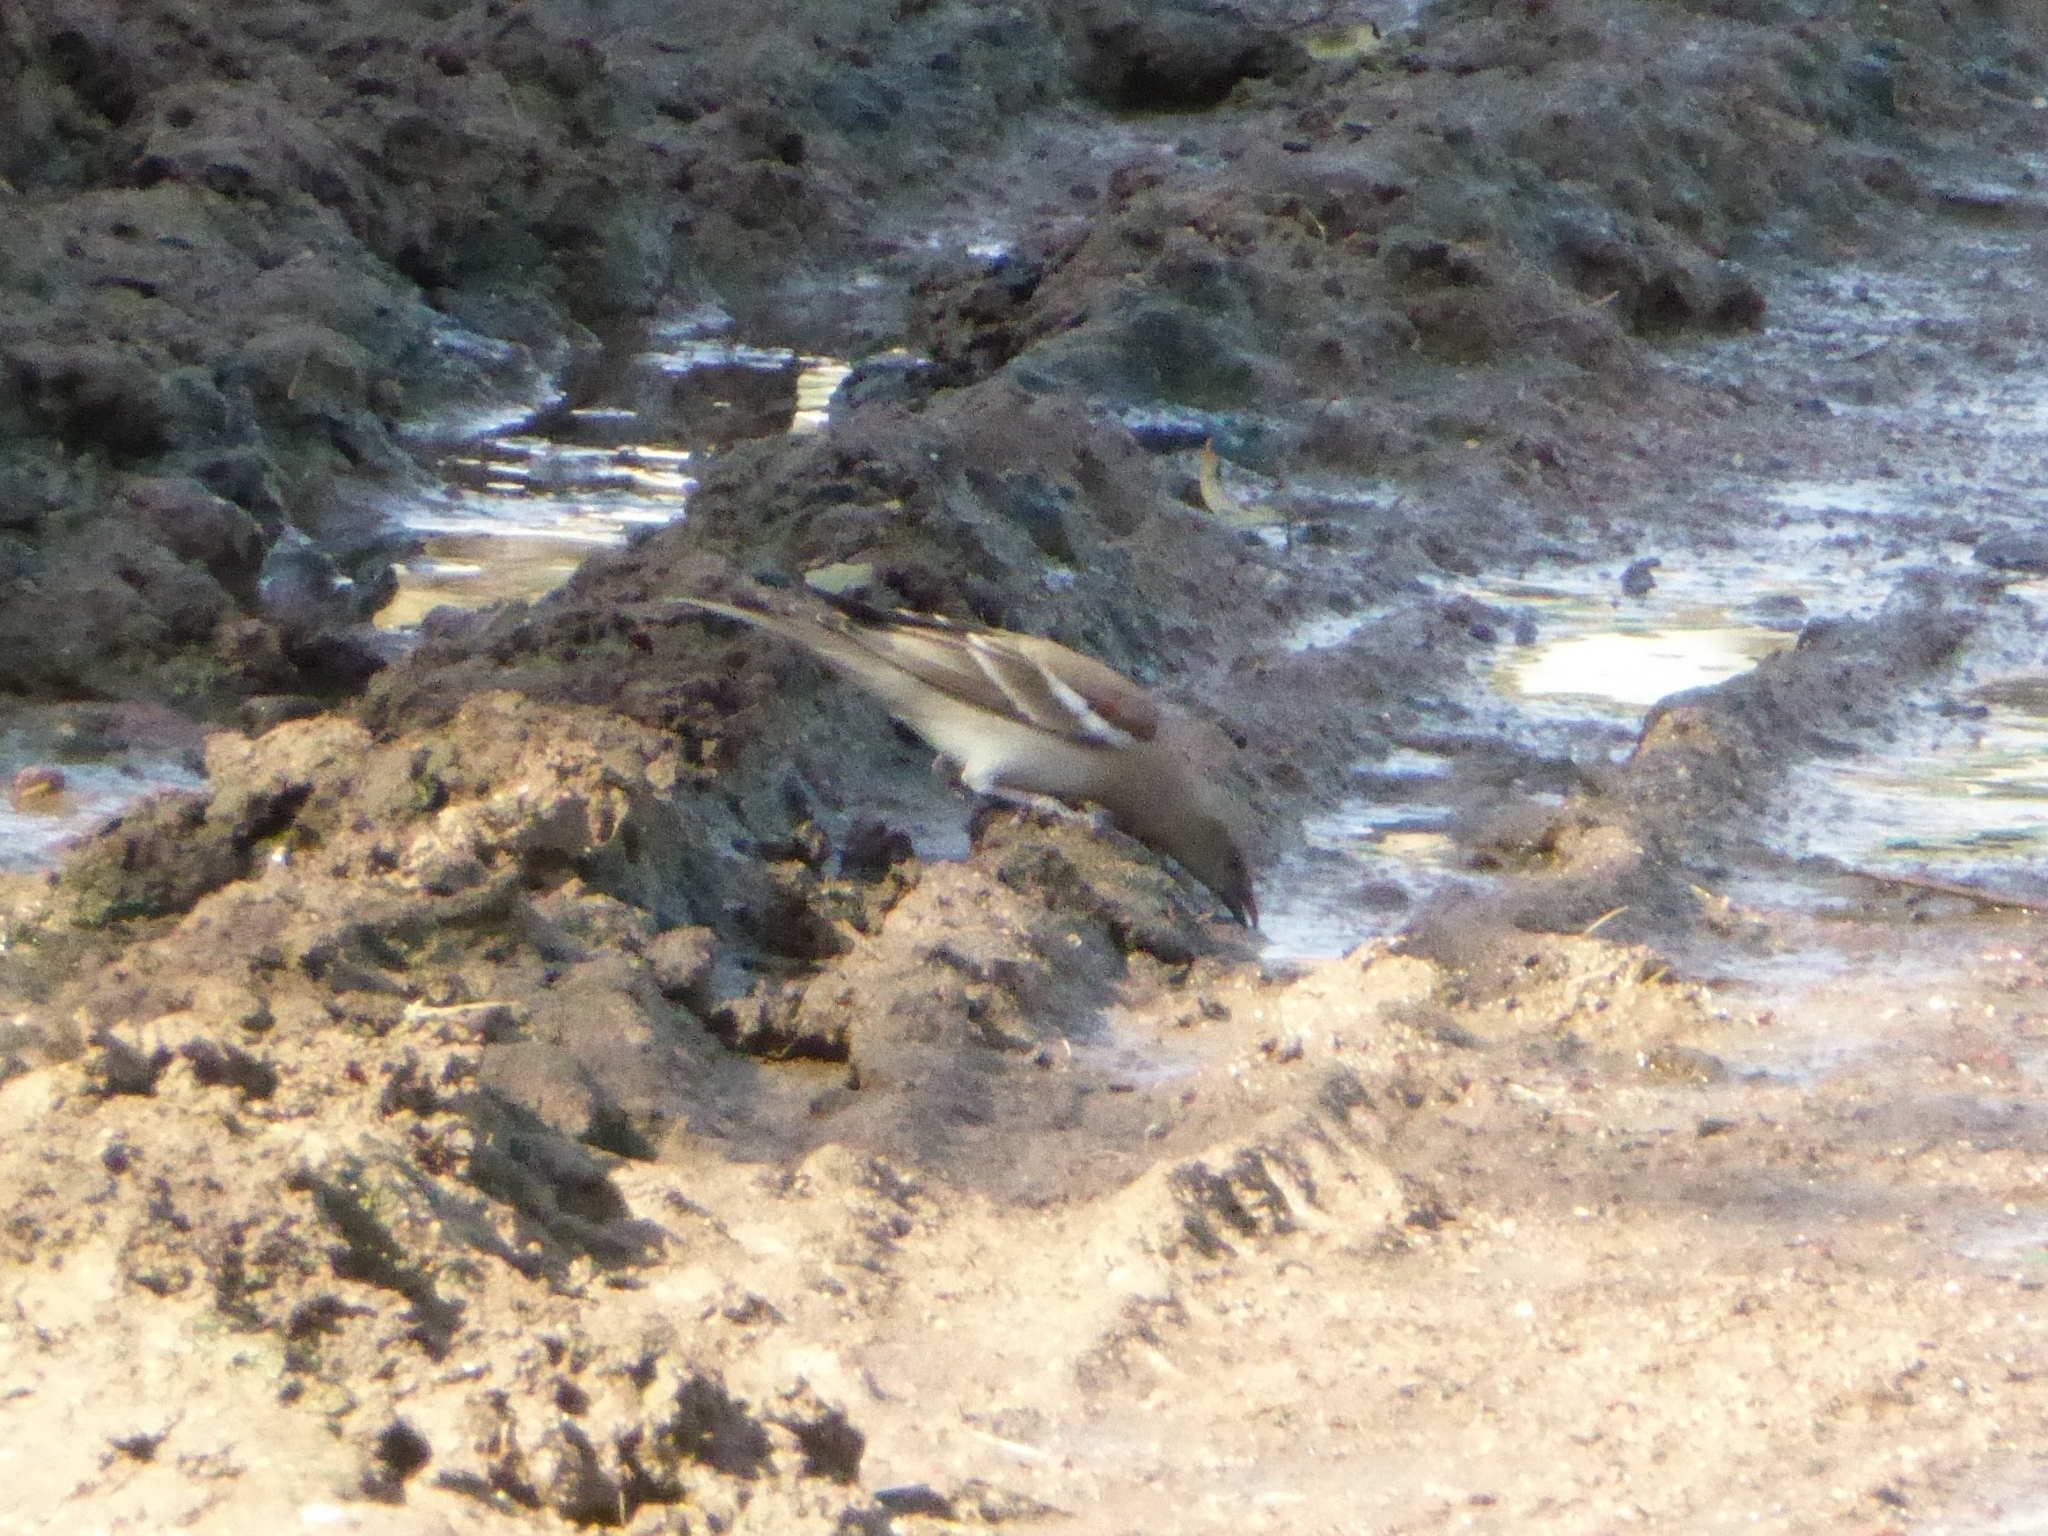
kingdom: Animalia
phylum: Chordata
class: Aves
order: Passeriformes
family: Passeridae
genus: Gymnoris
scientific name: Gymnoris xanthocollis
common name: Yellow-throated sparrow
